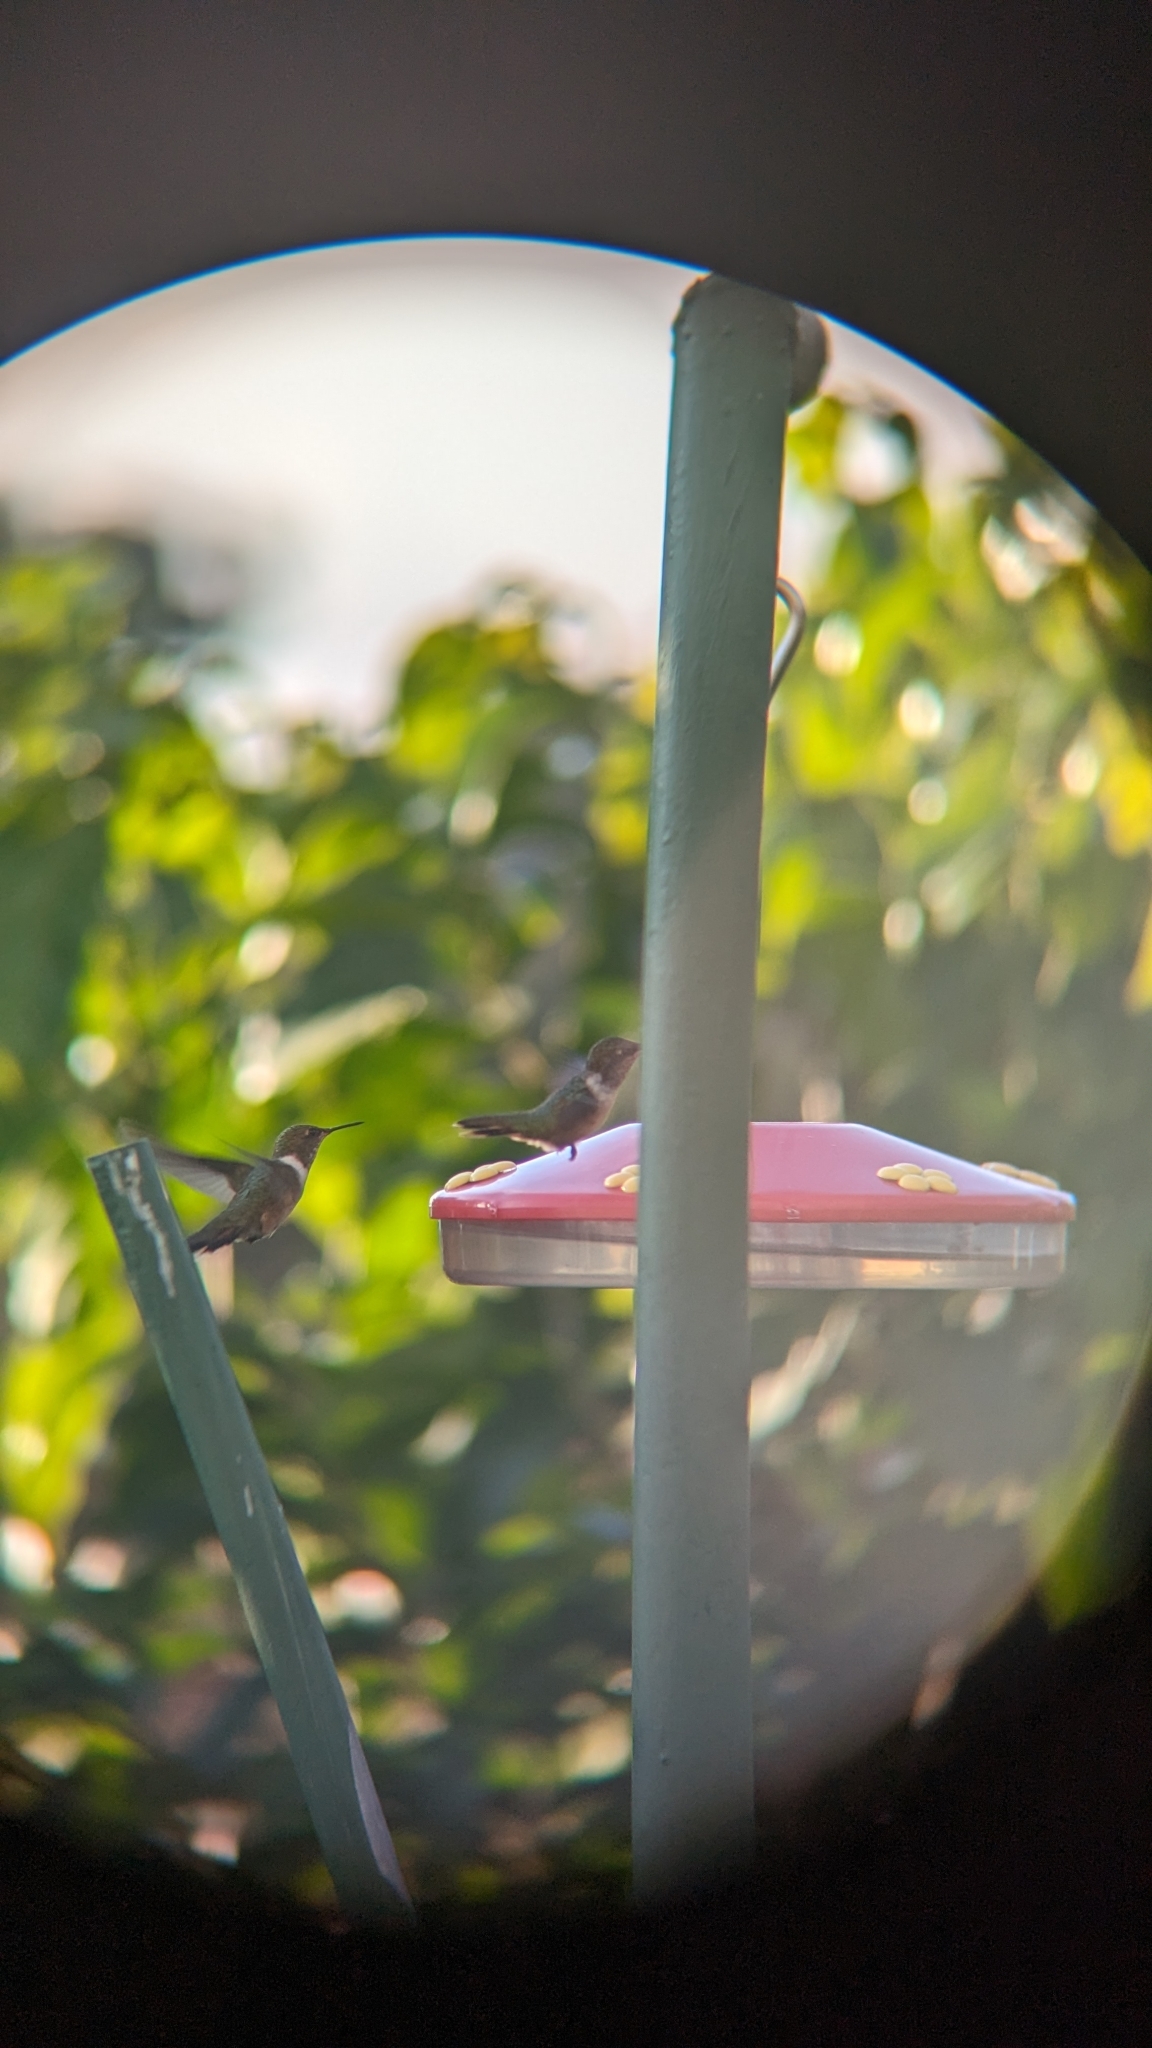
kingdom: Animalia
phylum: Chordata
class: Aves
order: Apodiformes
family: Trochilidae
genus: Selasphorus
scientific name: Selasphorus flammula
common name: Volcano hummingbird
